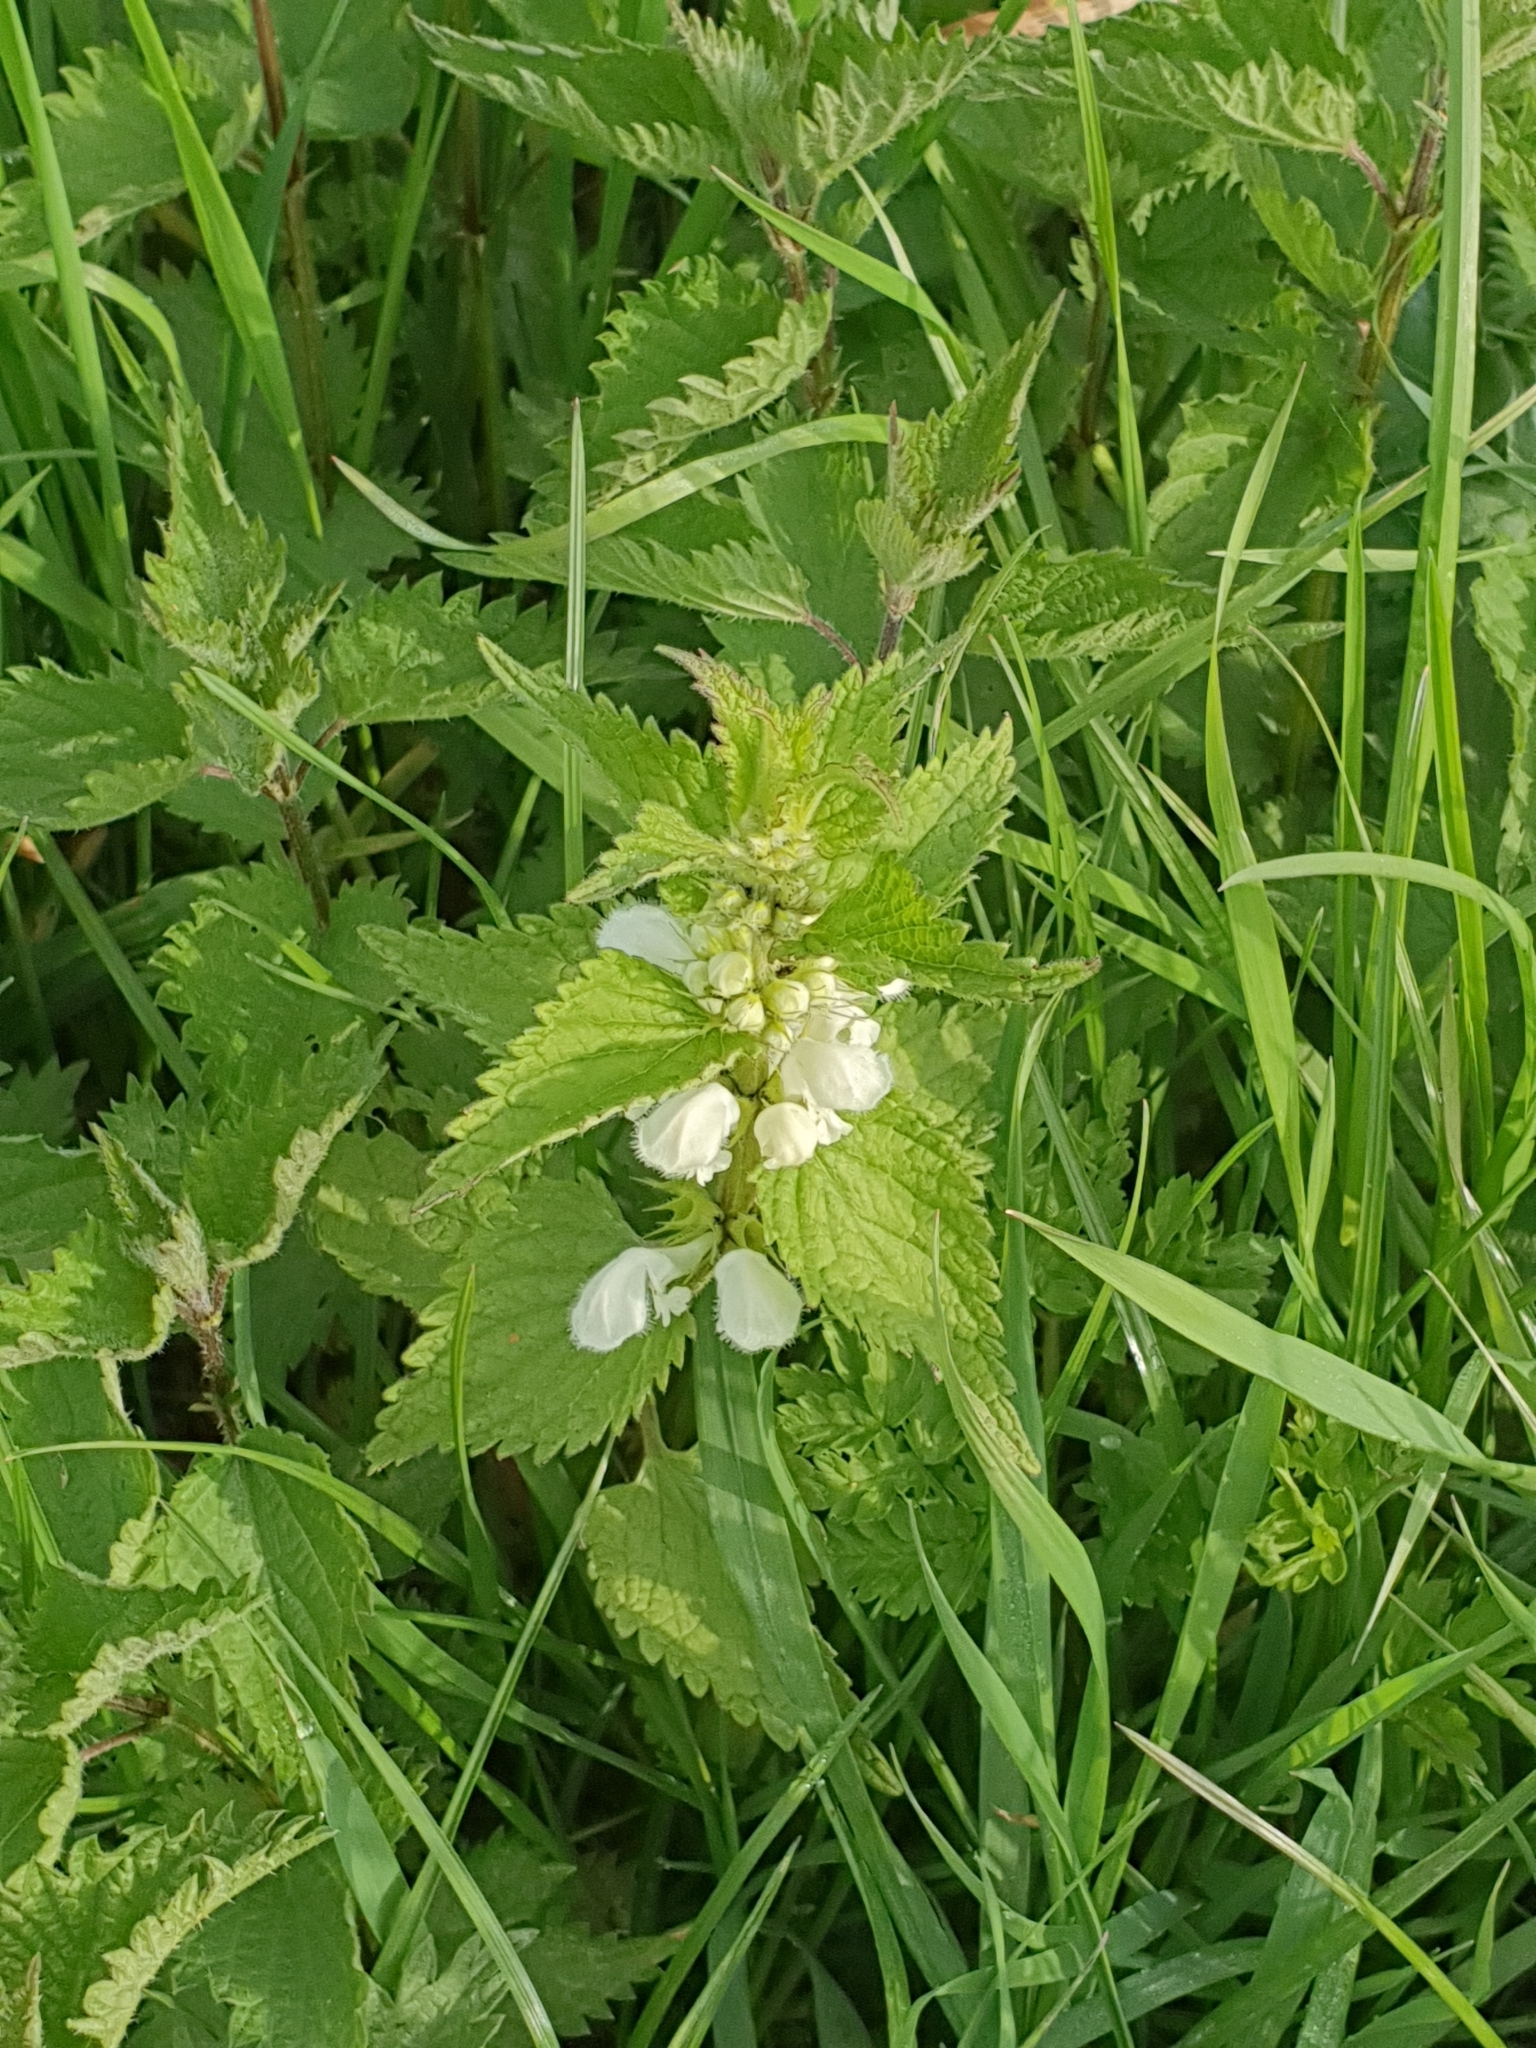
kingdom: Plantae
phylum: Tracheophyta
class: Magnoliopsida
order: Lamiales
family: Lamiaceae
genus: Lamium
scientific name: Lamium album
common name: White dead-nettle
